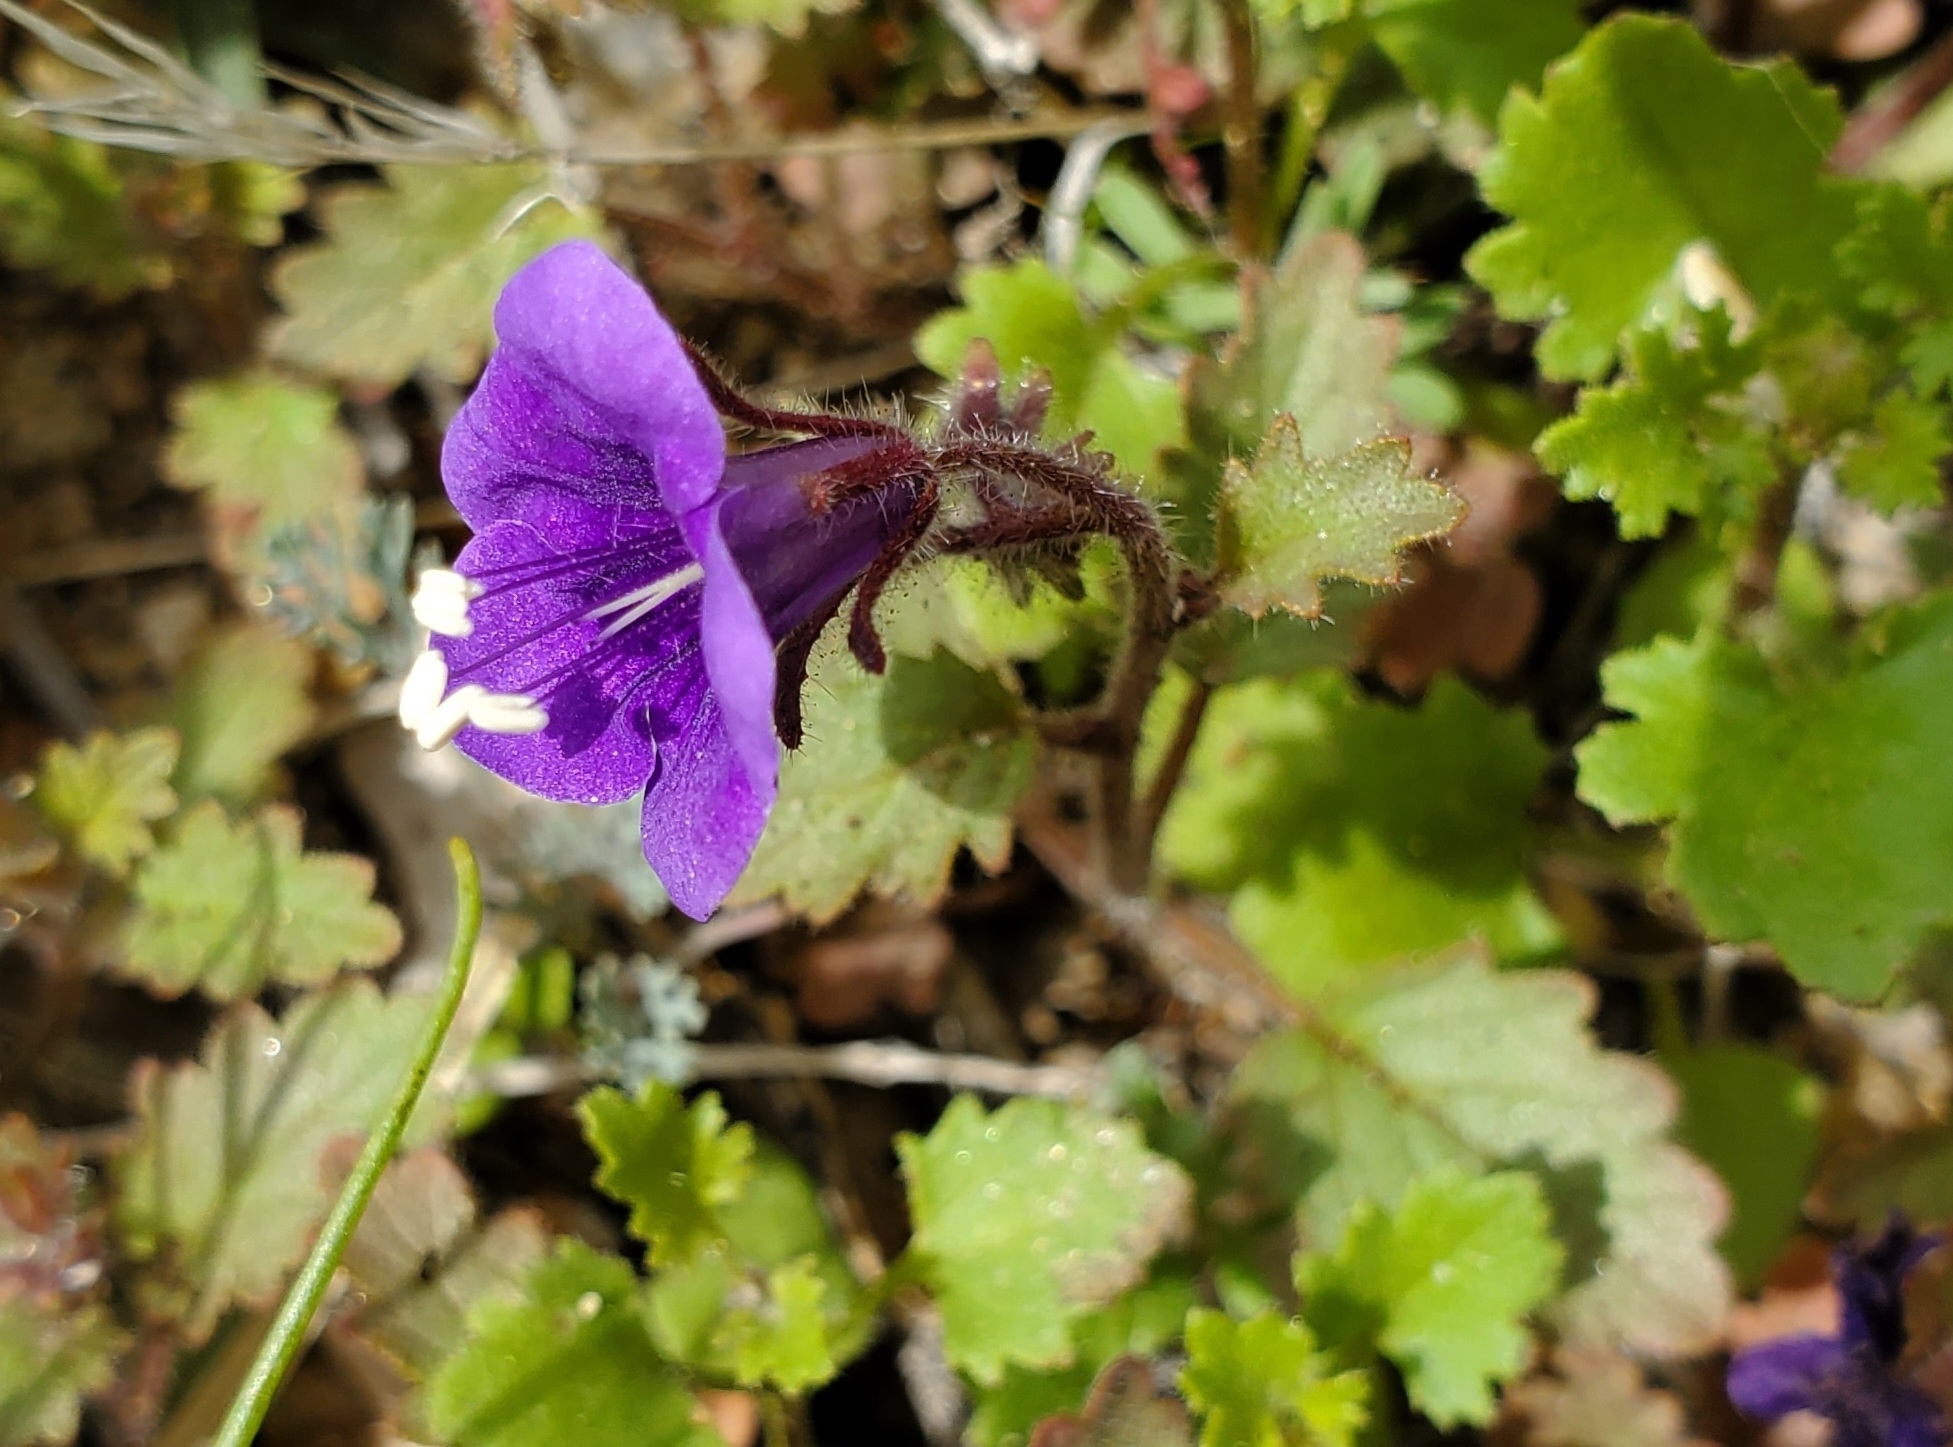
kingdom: Plantae
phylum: Tracheophyta
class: Magnoliopsida
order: Boraginales
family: Hydrophyllaceae
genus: Phacelia
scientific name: Phacelia minor
